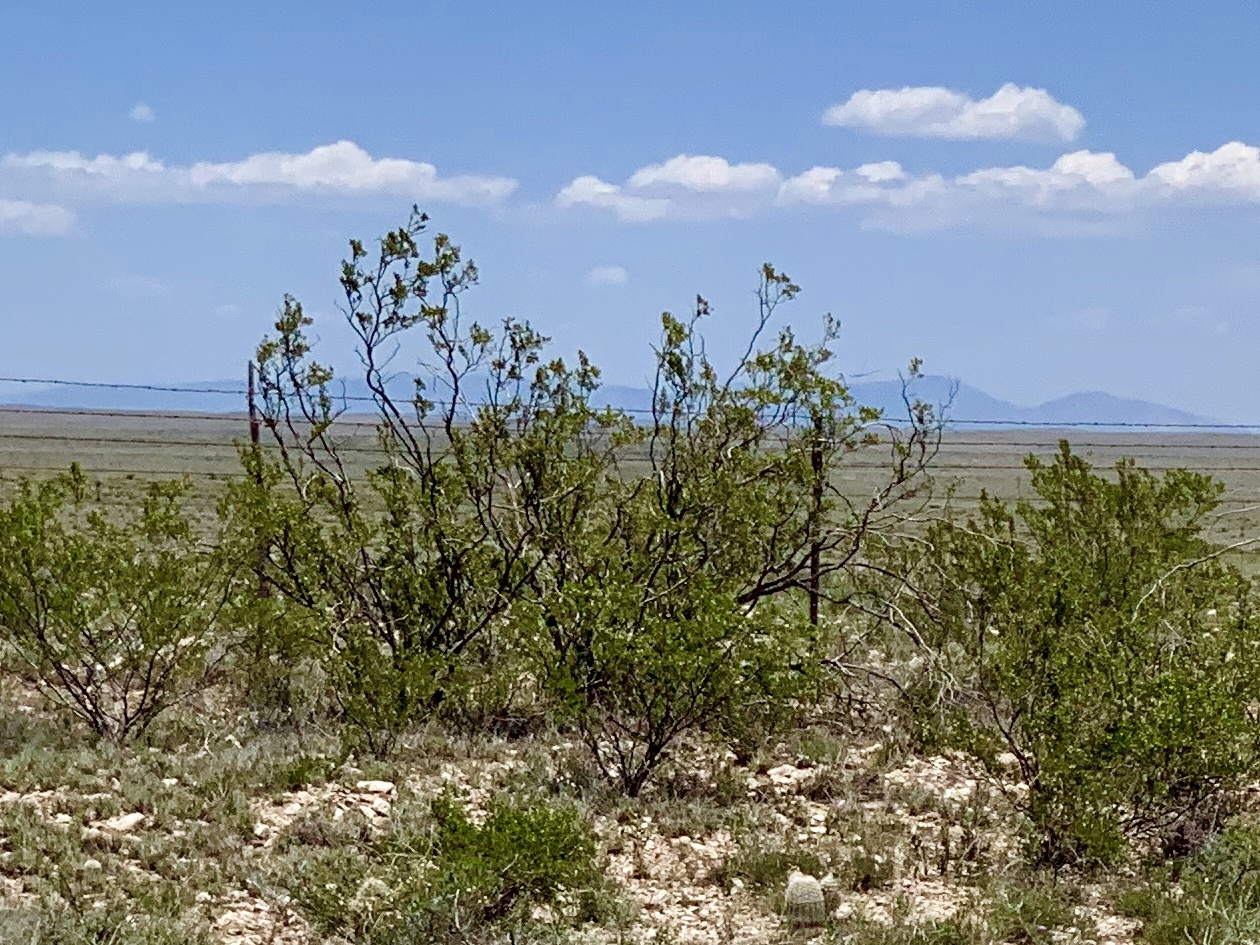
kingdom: Plantae
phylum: Tracheophyta
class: Magnoliopsida
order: Zygophyllales
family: Zygophyllaceae
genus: Larrea
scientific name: Larrea tridentata
